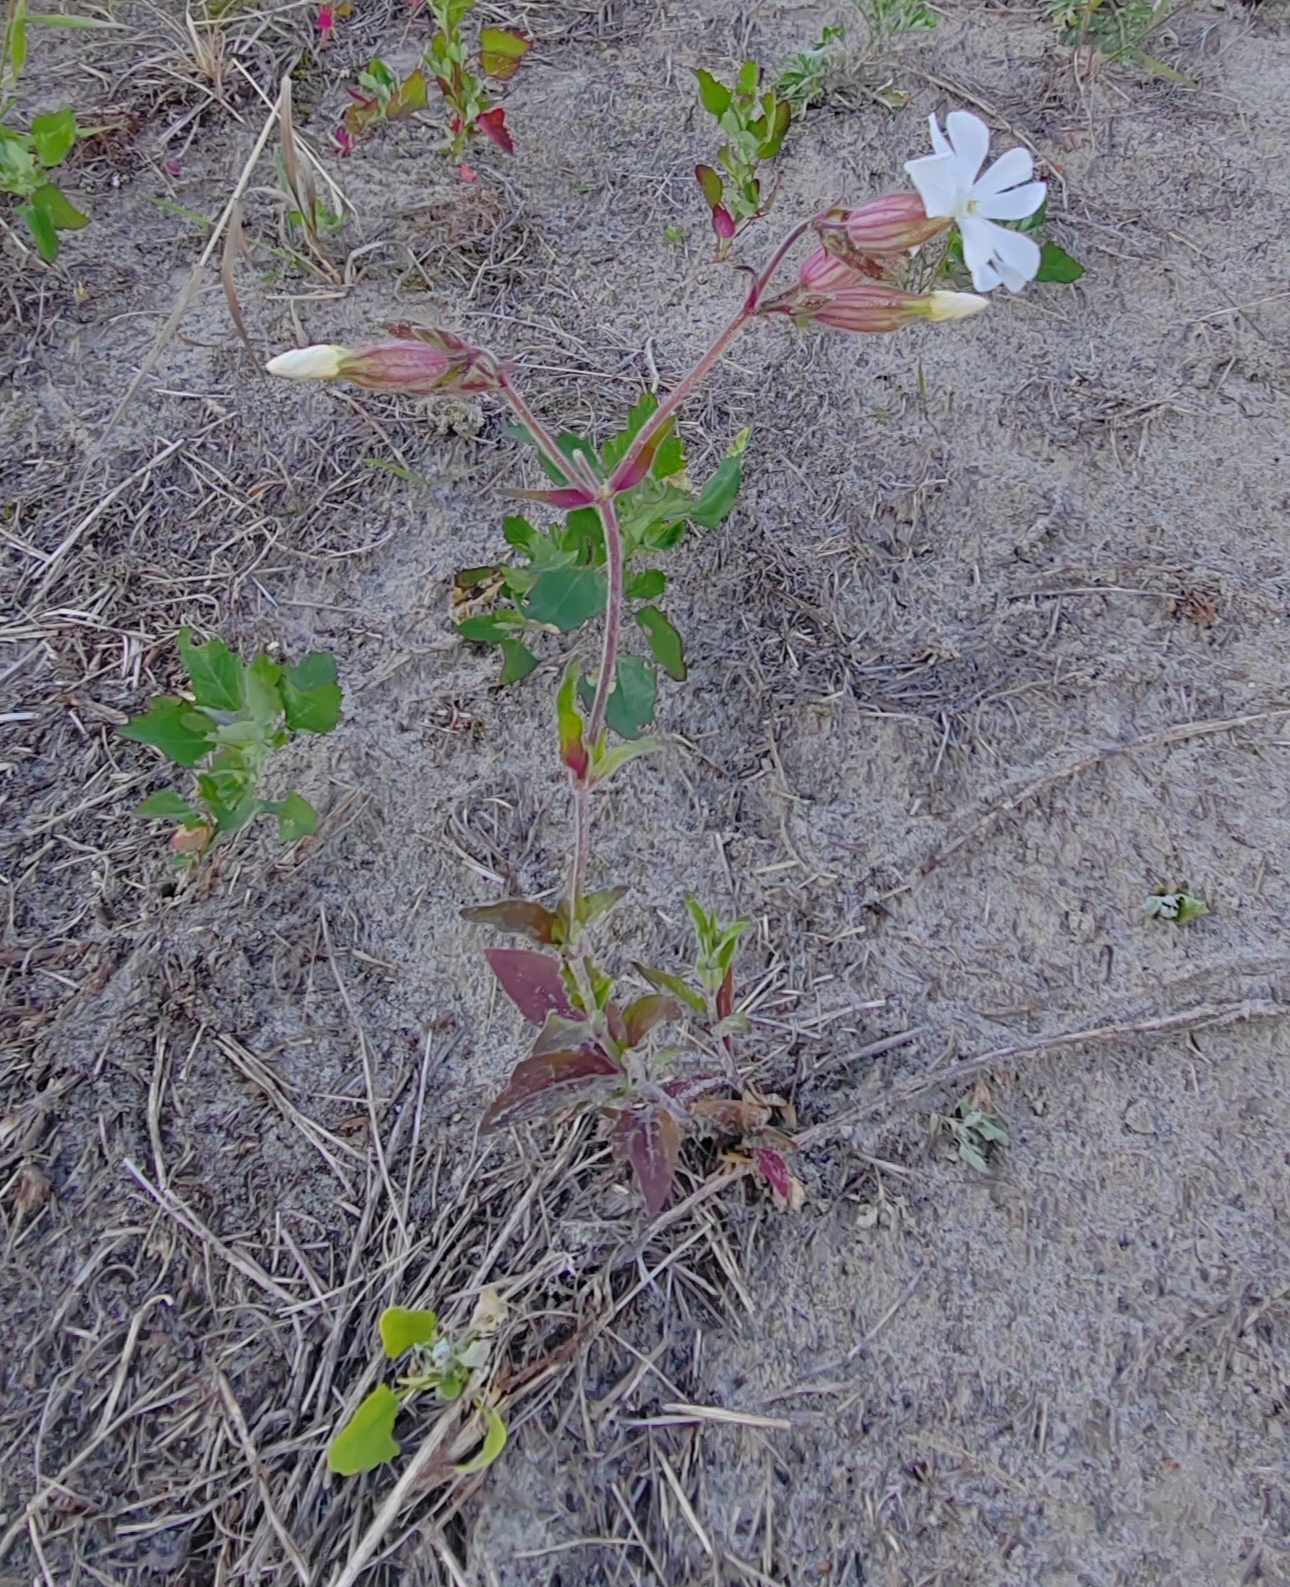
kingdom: Plantae
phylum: Tracheophyta
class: Magnoliopsida
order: Caryophyllales
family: Caryophyllaceae
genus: Silene
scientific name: Silene latifolia
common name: White campion
